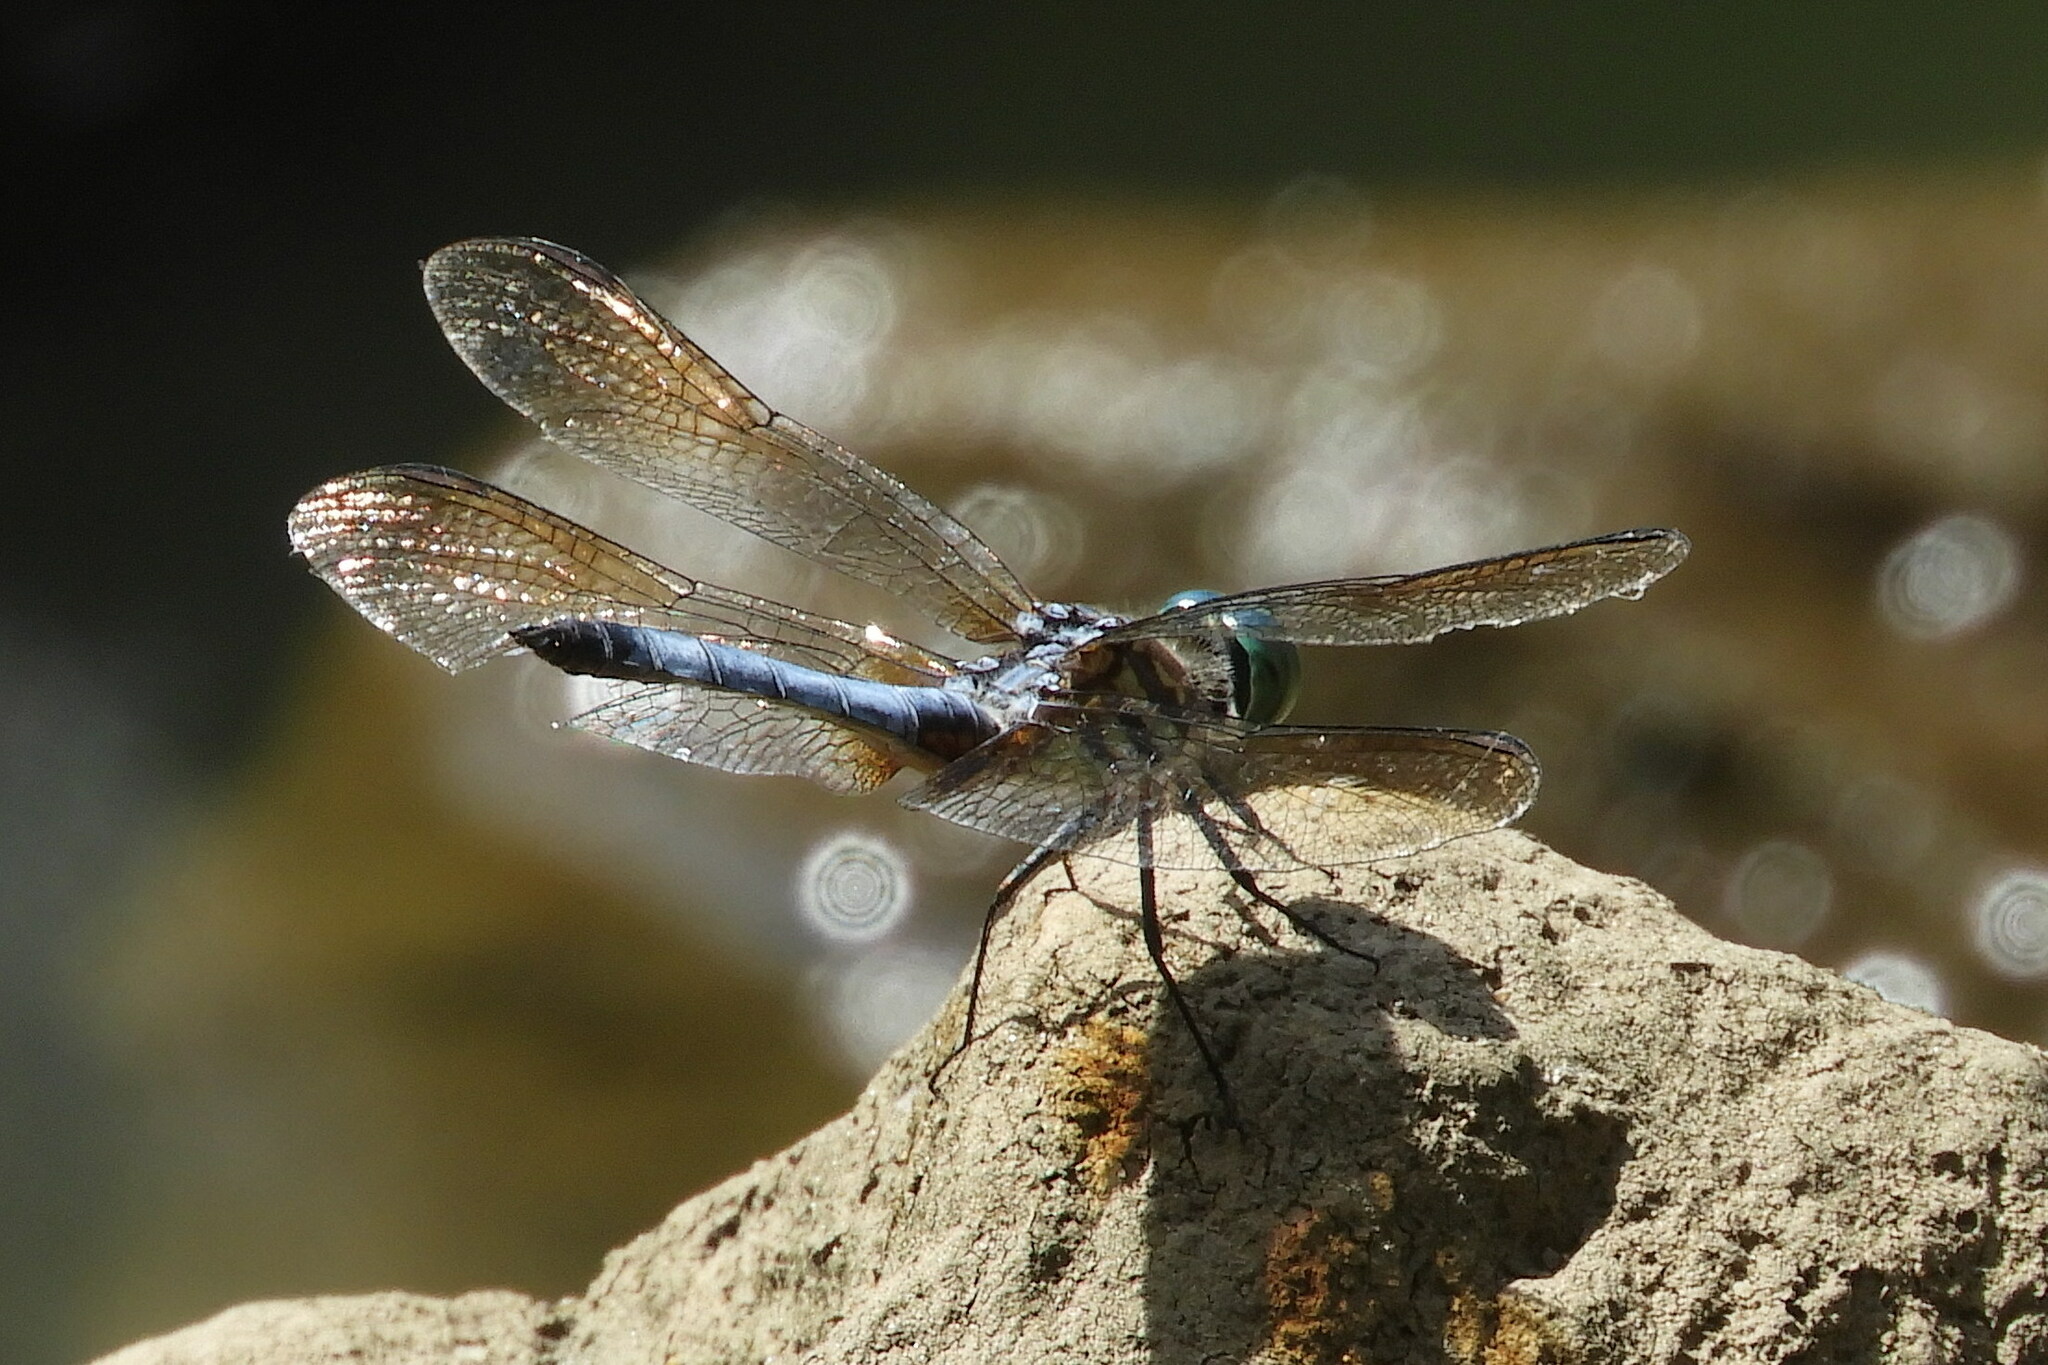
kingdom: Animalia
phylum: Arthropoda
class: Insecta
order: Odonata
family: Libellulidae
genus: Pachydiplax
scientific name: Pachydiplax longipennis
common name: Blue dasher
